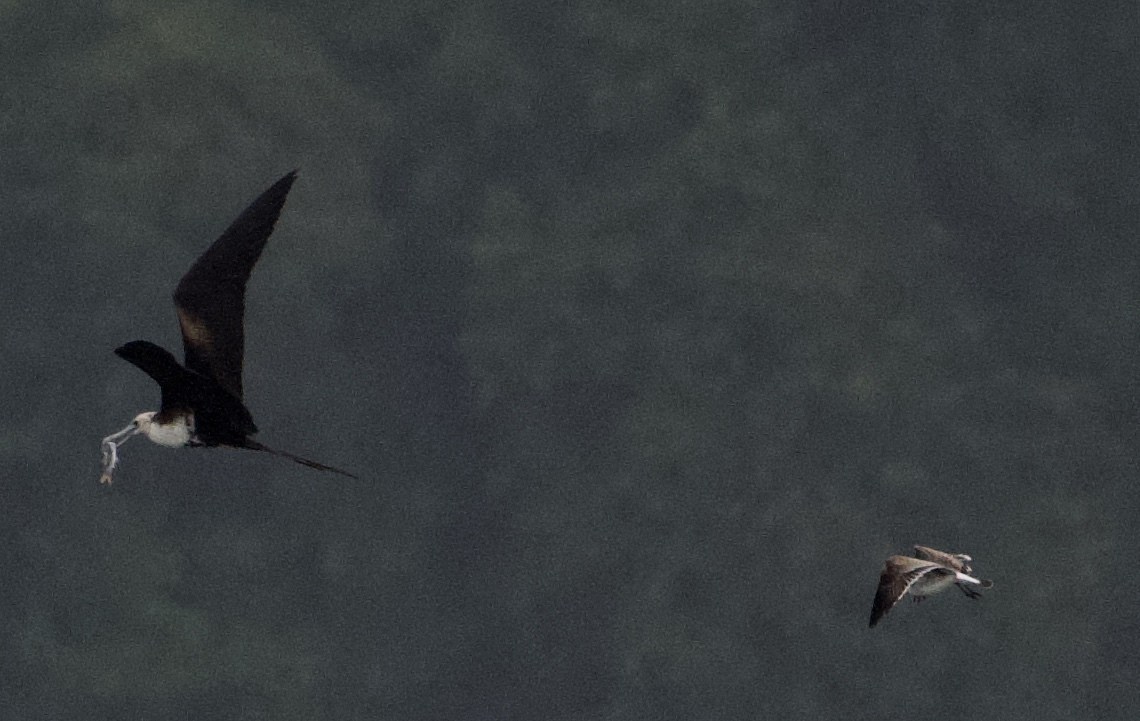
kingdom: Animalia
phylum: Chordata
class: Aves
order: Suliformes
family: Fregatidae
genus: Fregata
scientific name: Fregata magnificens
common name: Magnificent frigatebird
